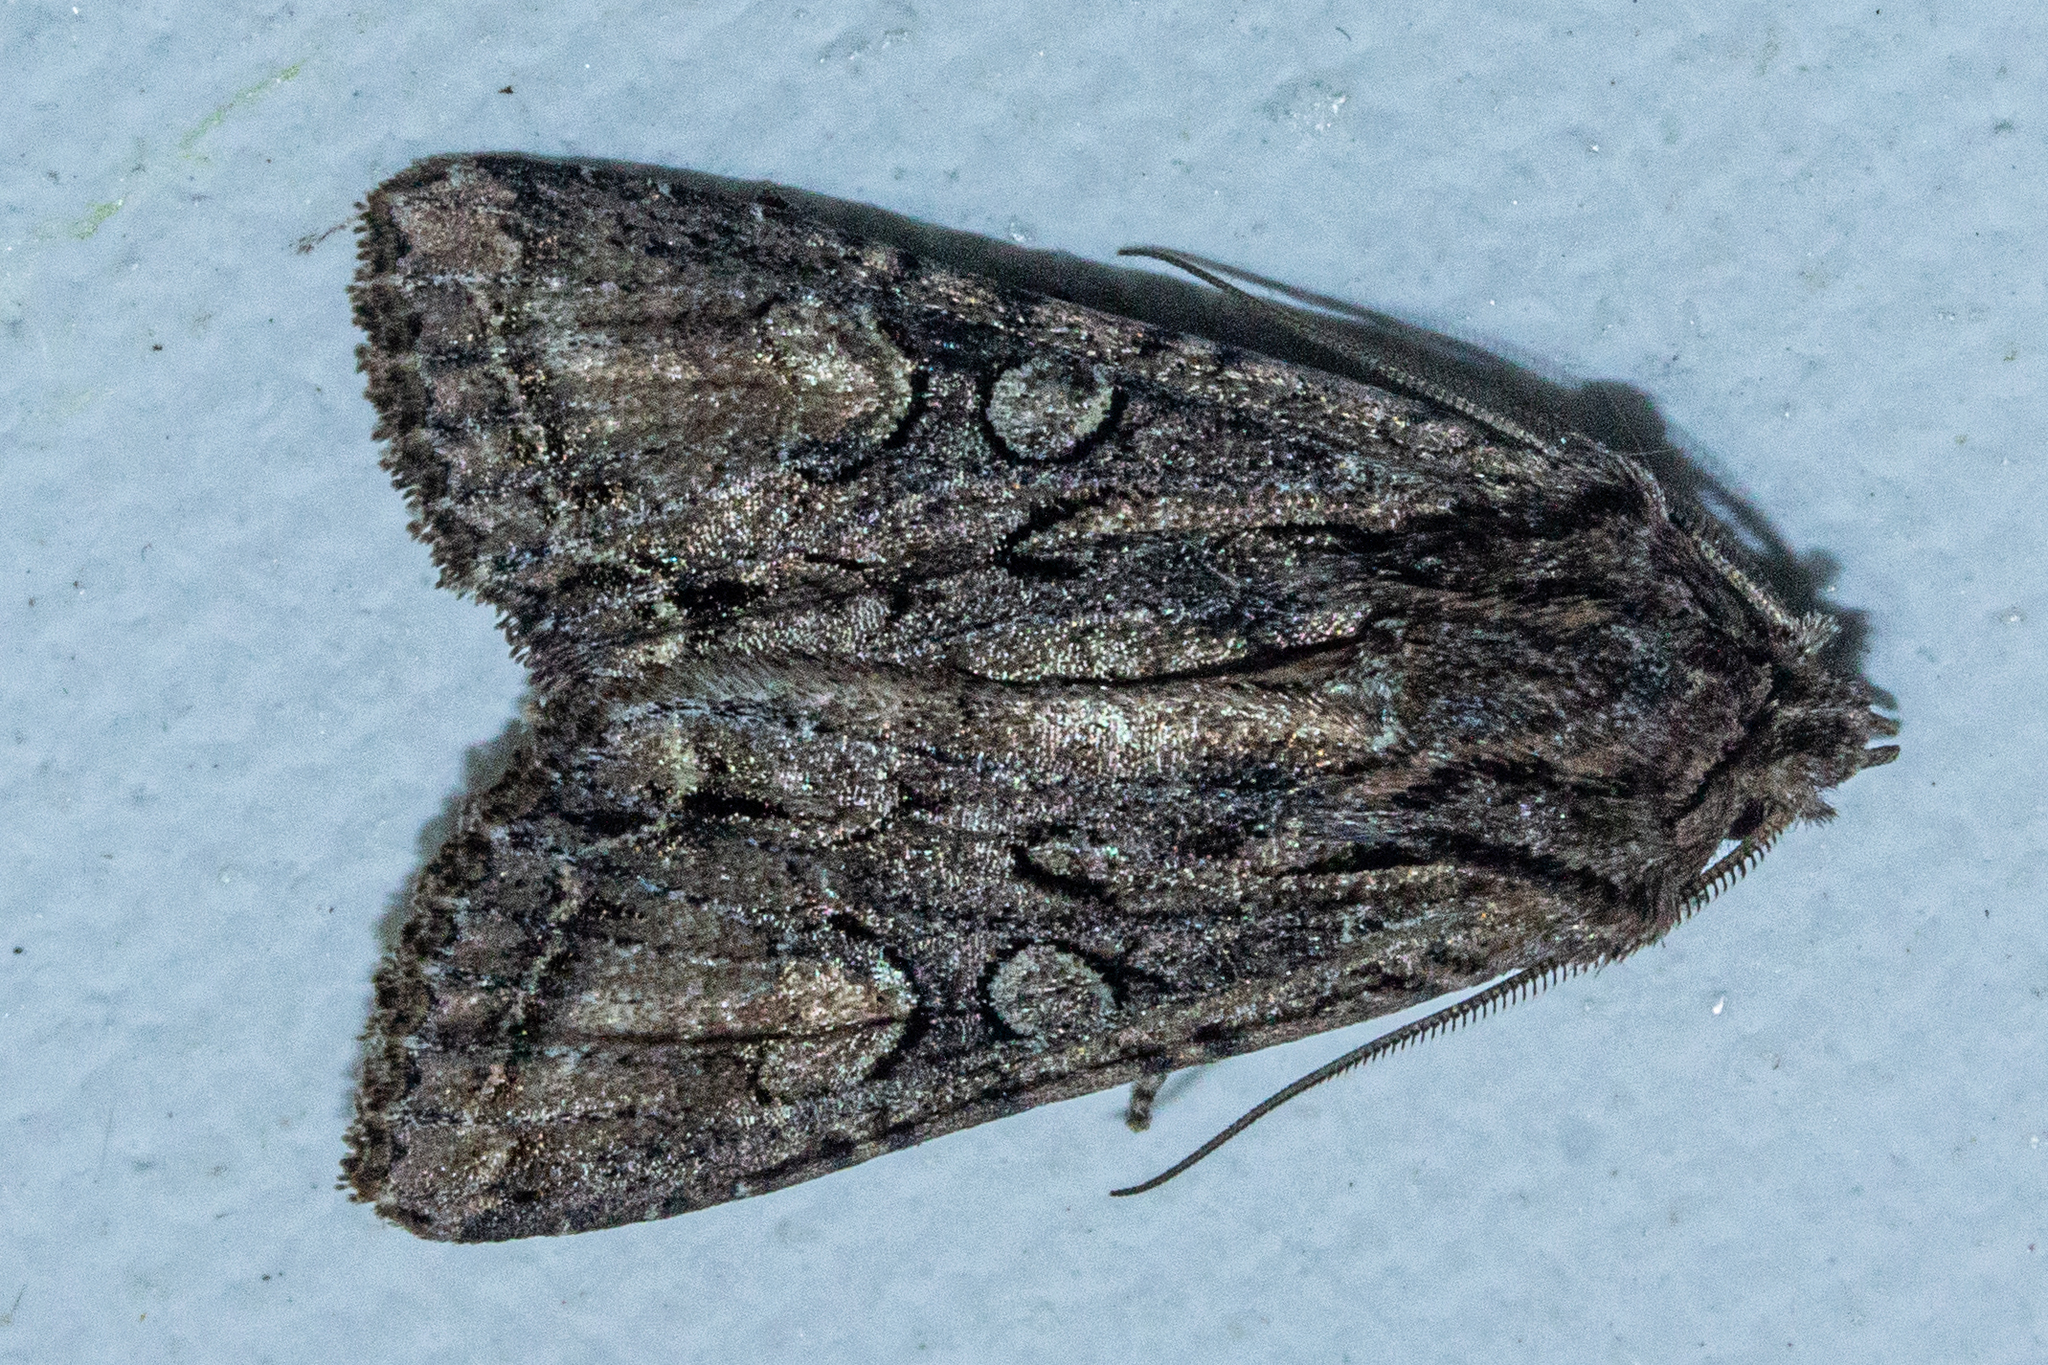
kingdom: Animalia
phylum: Arthropoda
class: Insecta
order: Lepidoptera
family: Noctuidae
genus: Ichneutica
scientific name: Ichneutica mutans
